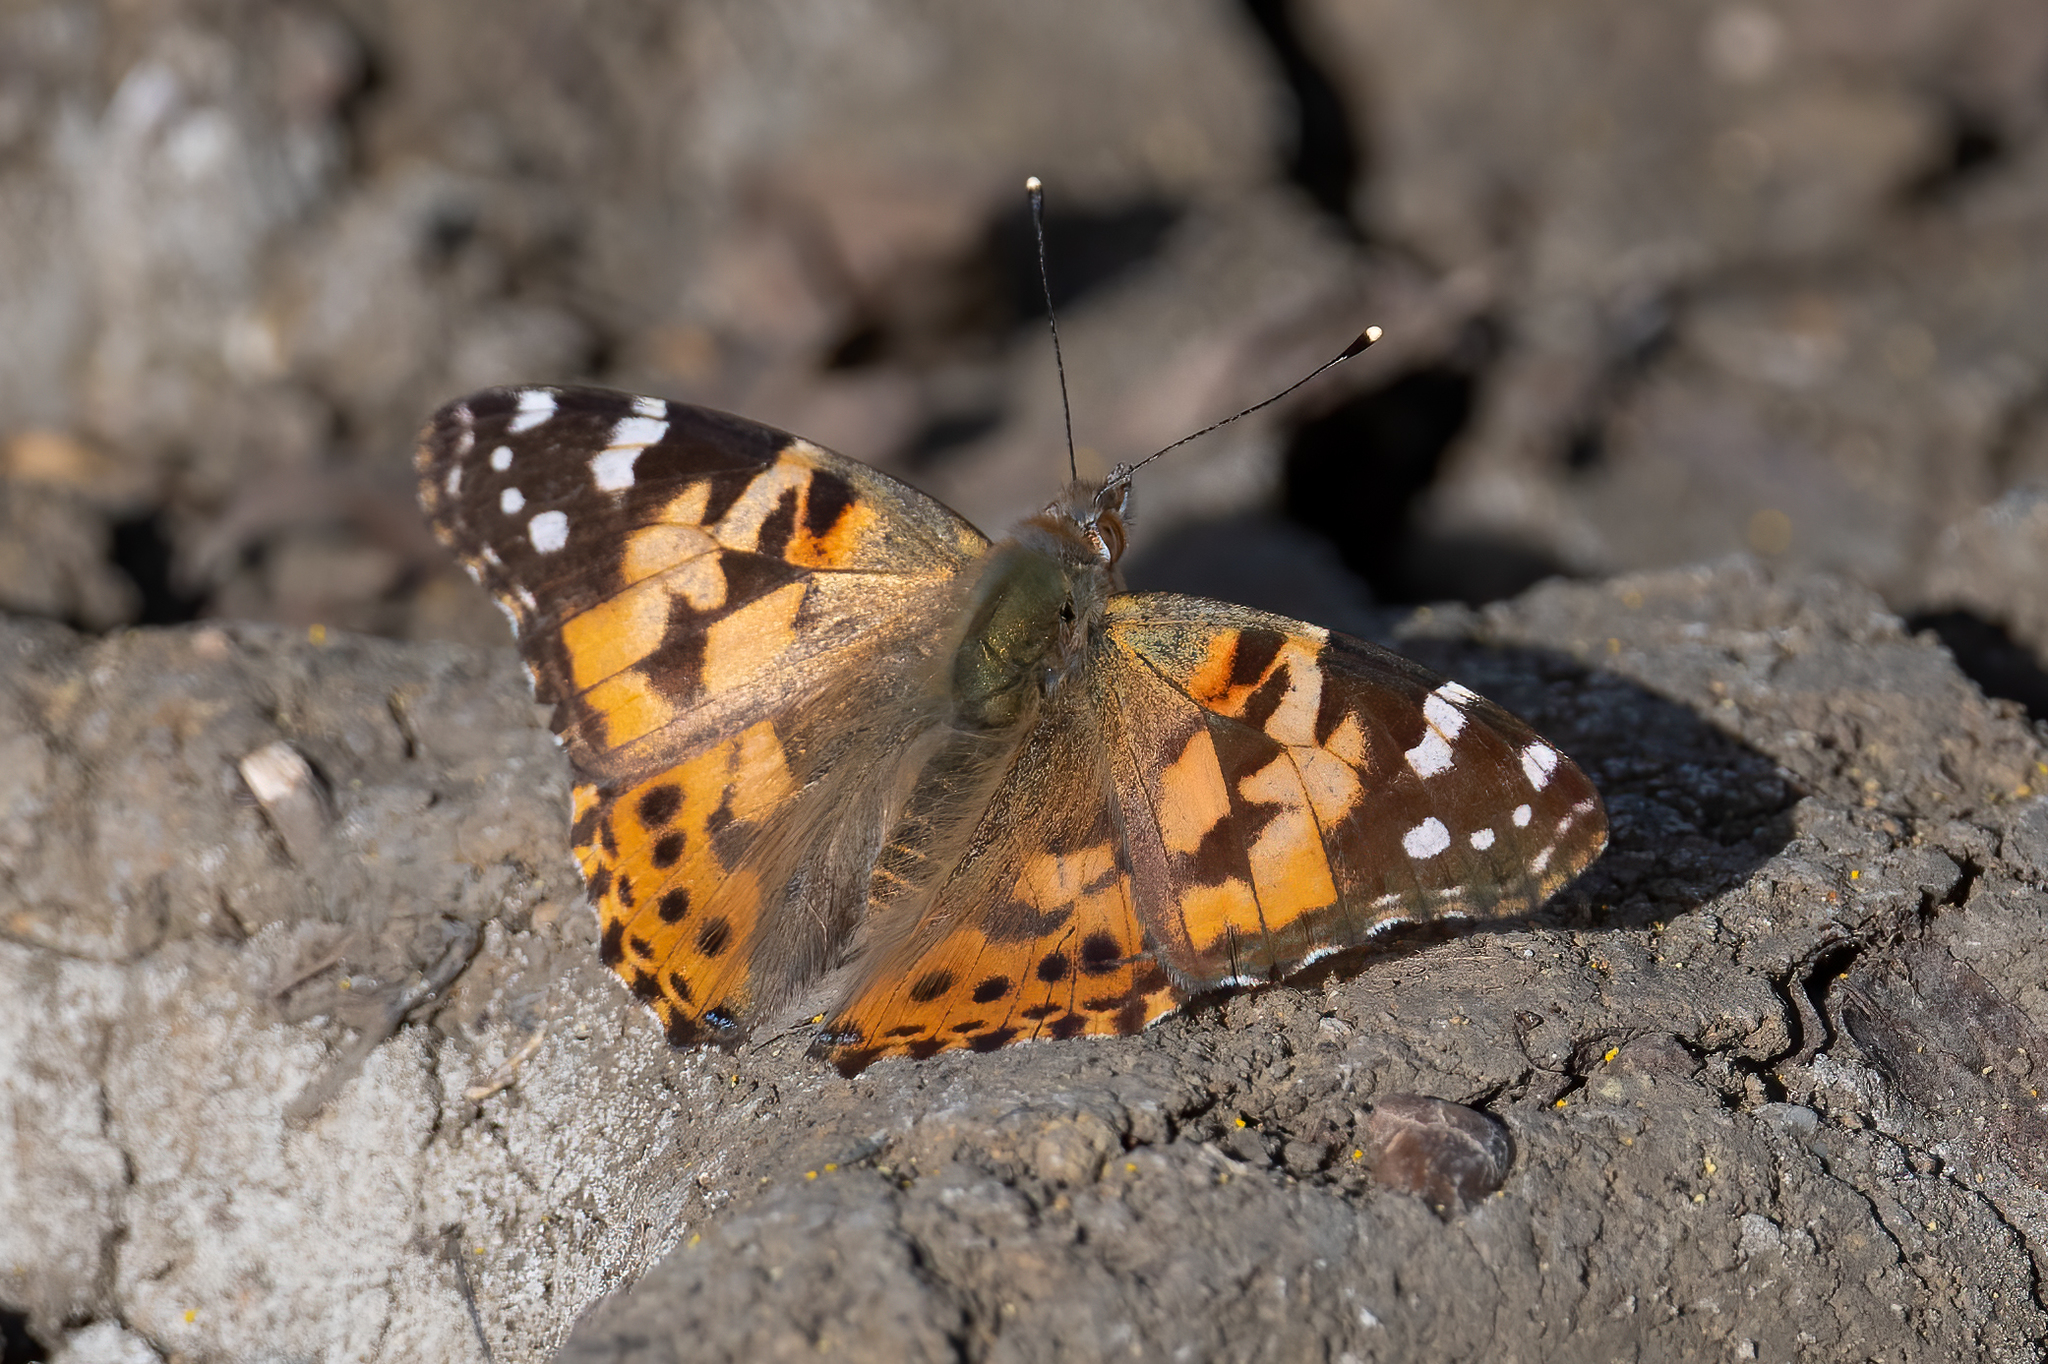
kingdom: Animalia
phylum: Arthropoda
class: Insecta
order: Lepidoptera
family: Nymphalidae
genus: Vanessa
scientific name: Vanessa cardui
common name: Painted lady
